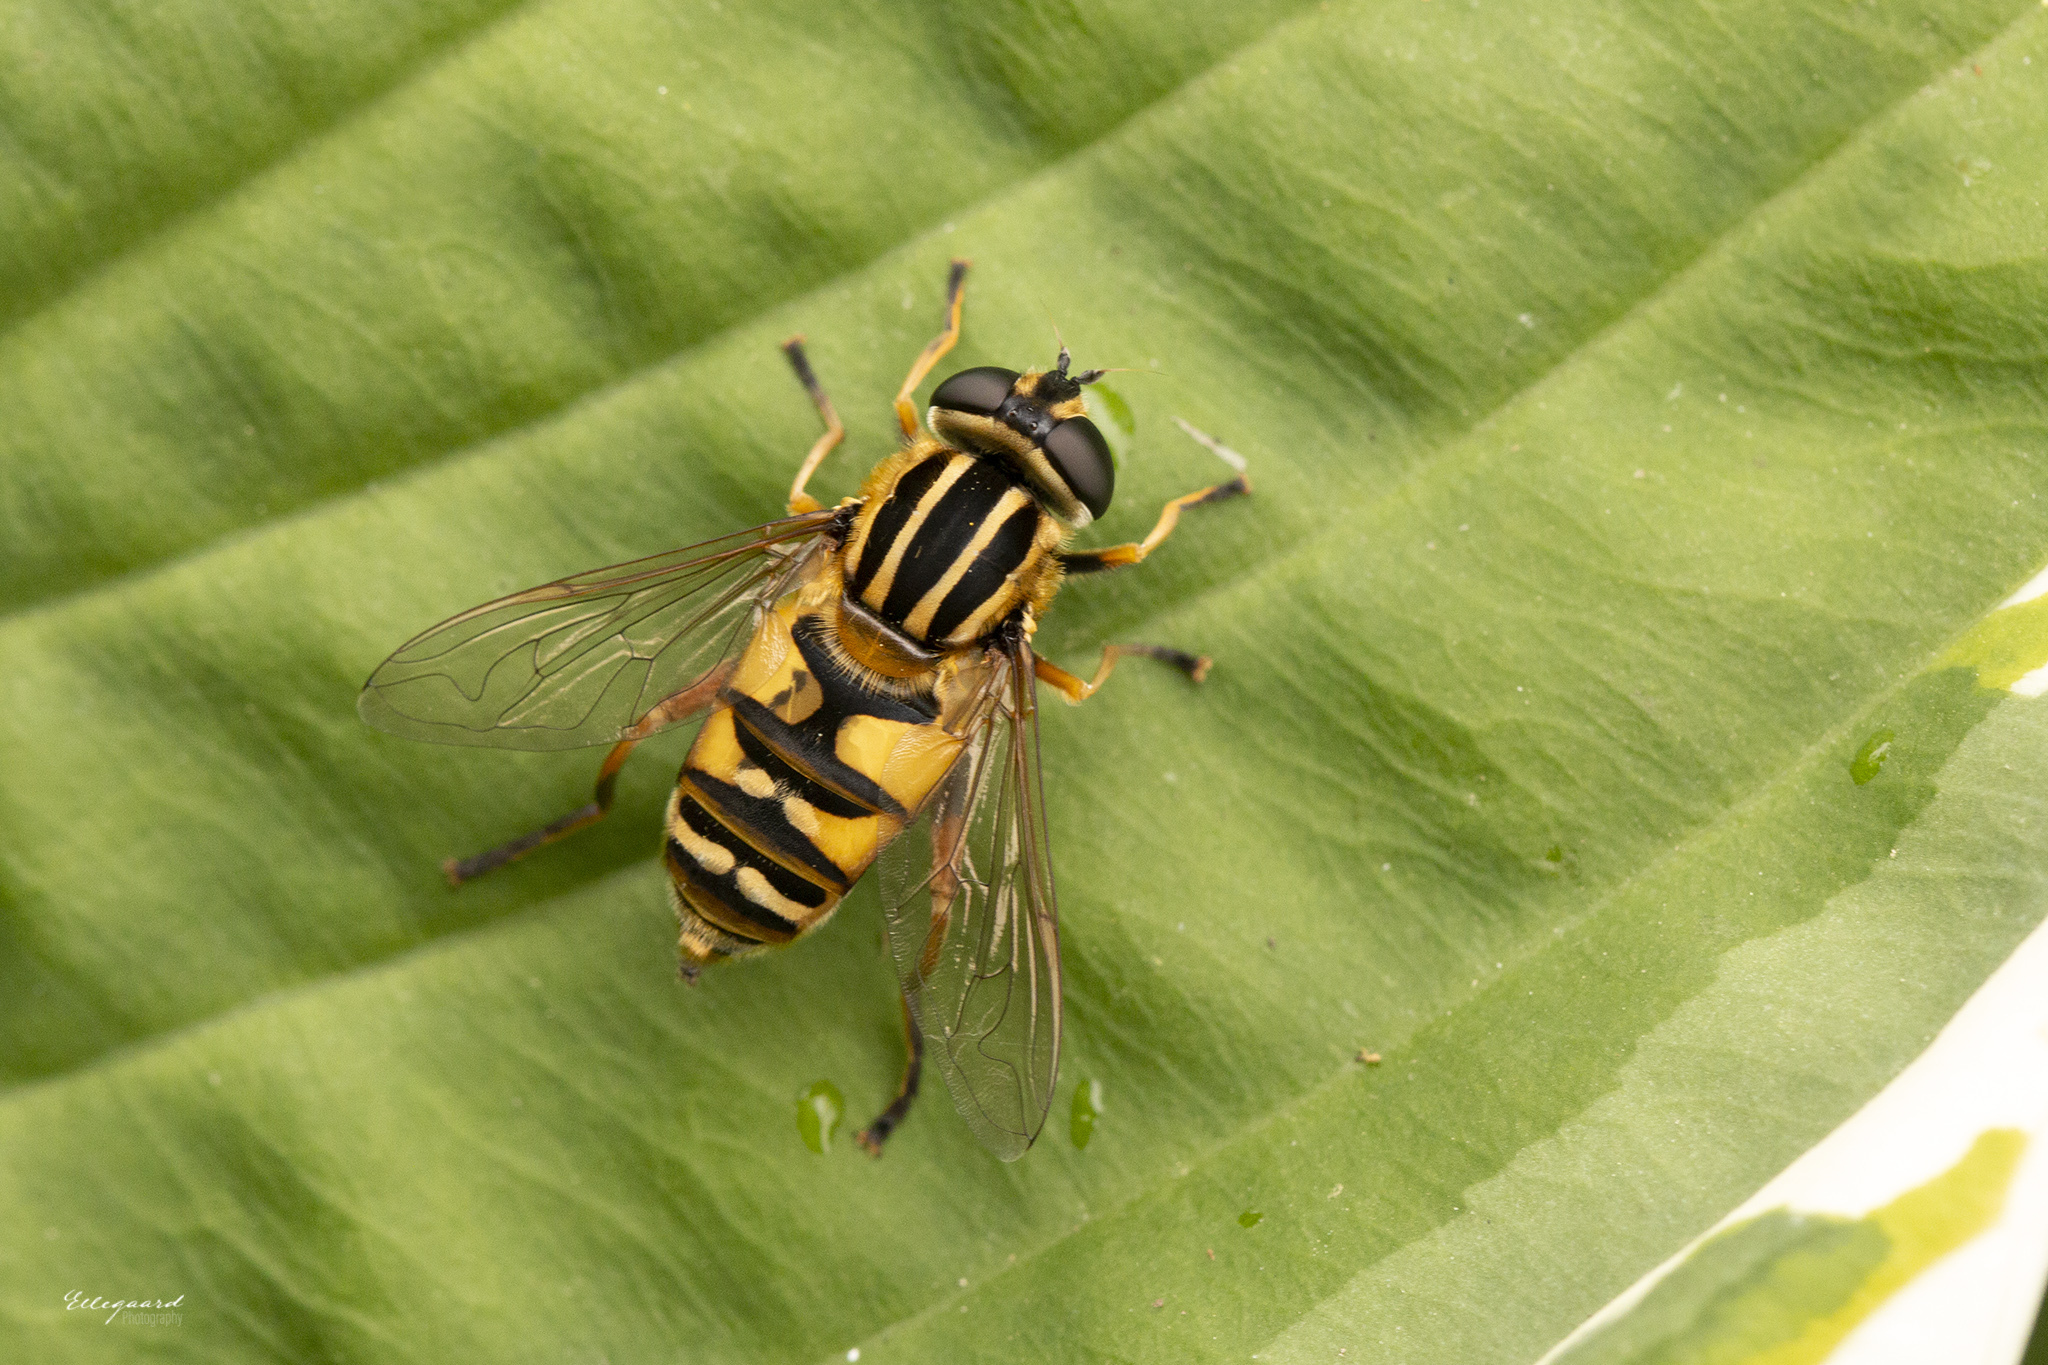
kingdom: Animalia
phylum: Arthropoda
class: Insecta
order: Diptera
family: Syrphidae
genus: Helophilus
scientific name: Helophilus pendulus
